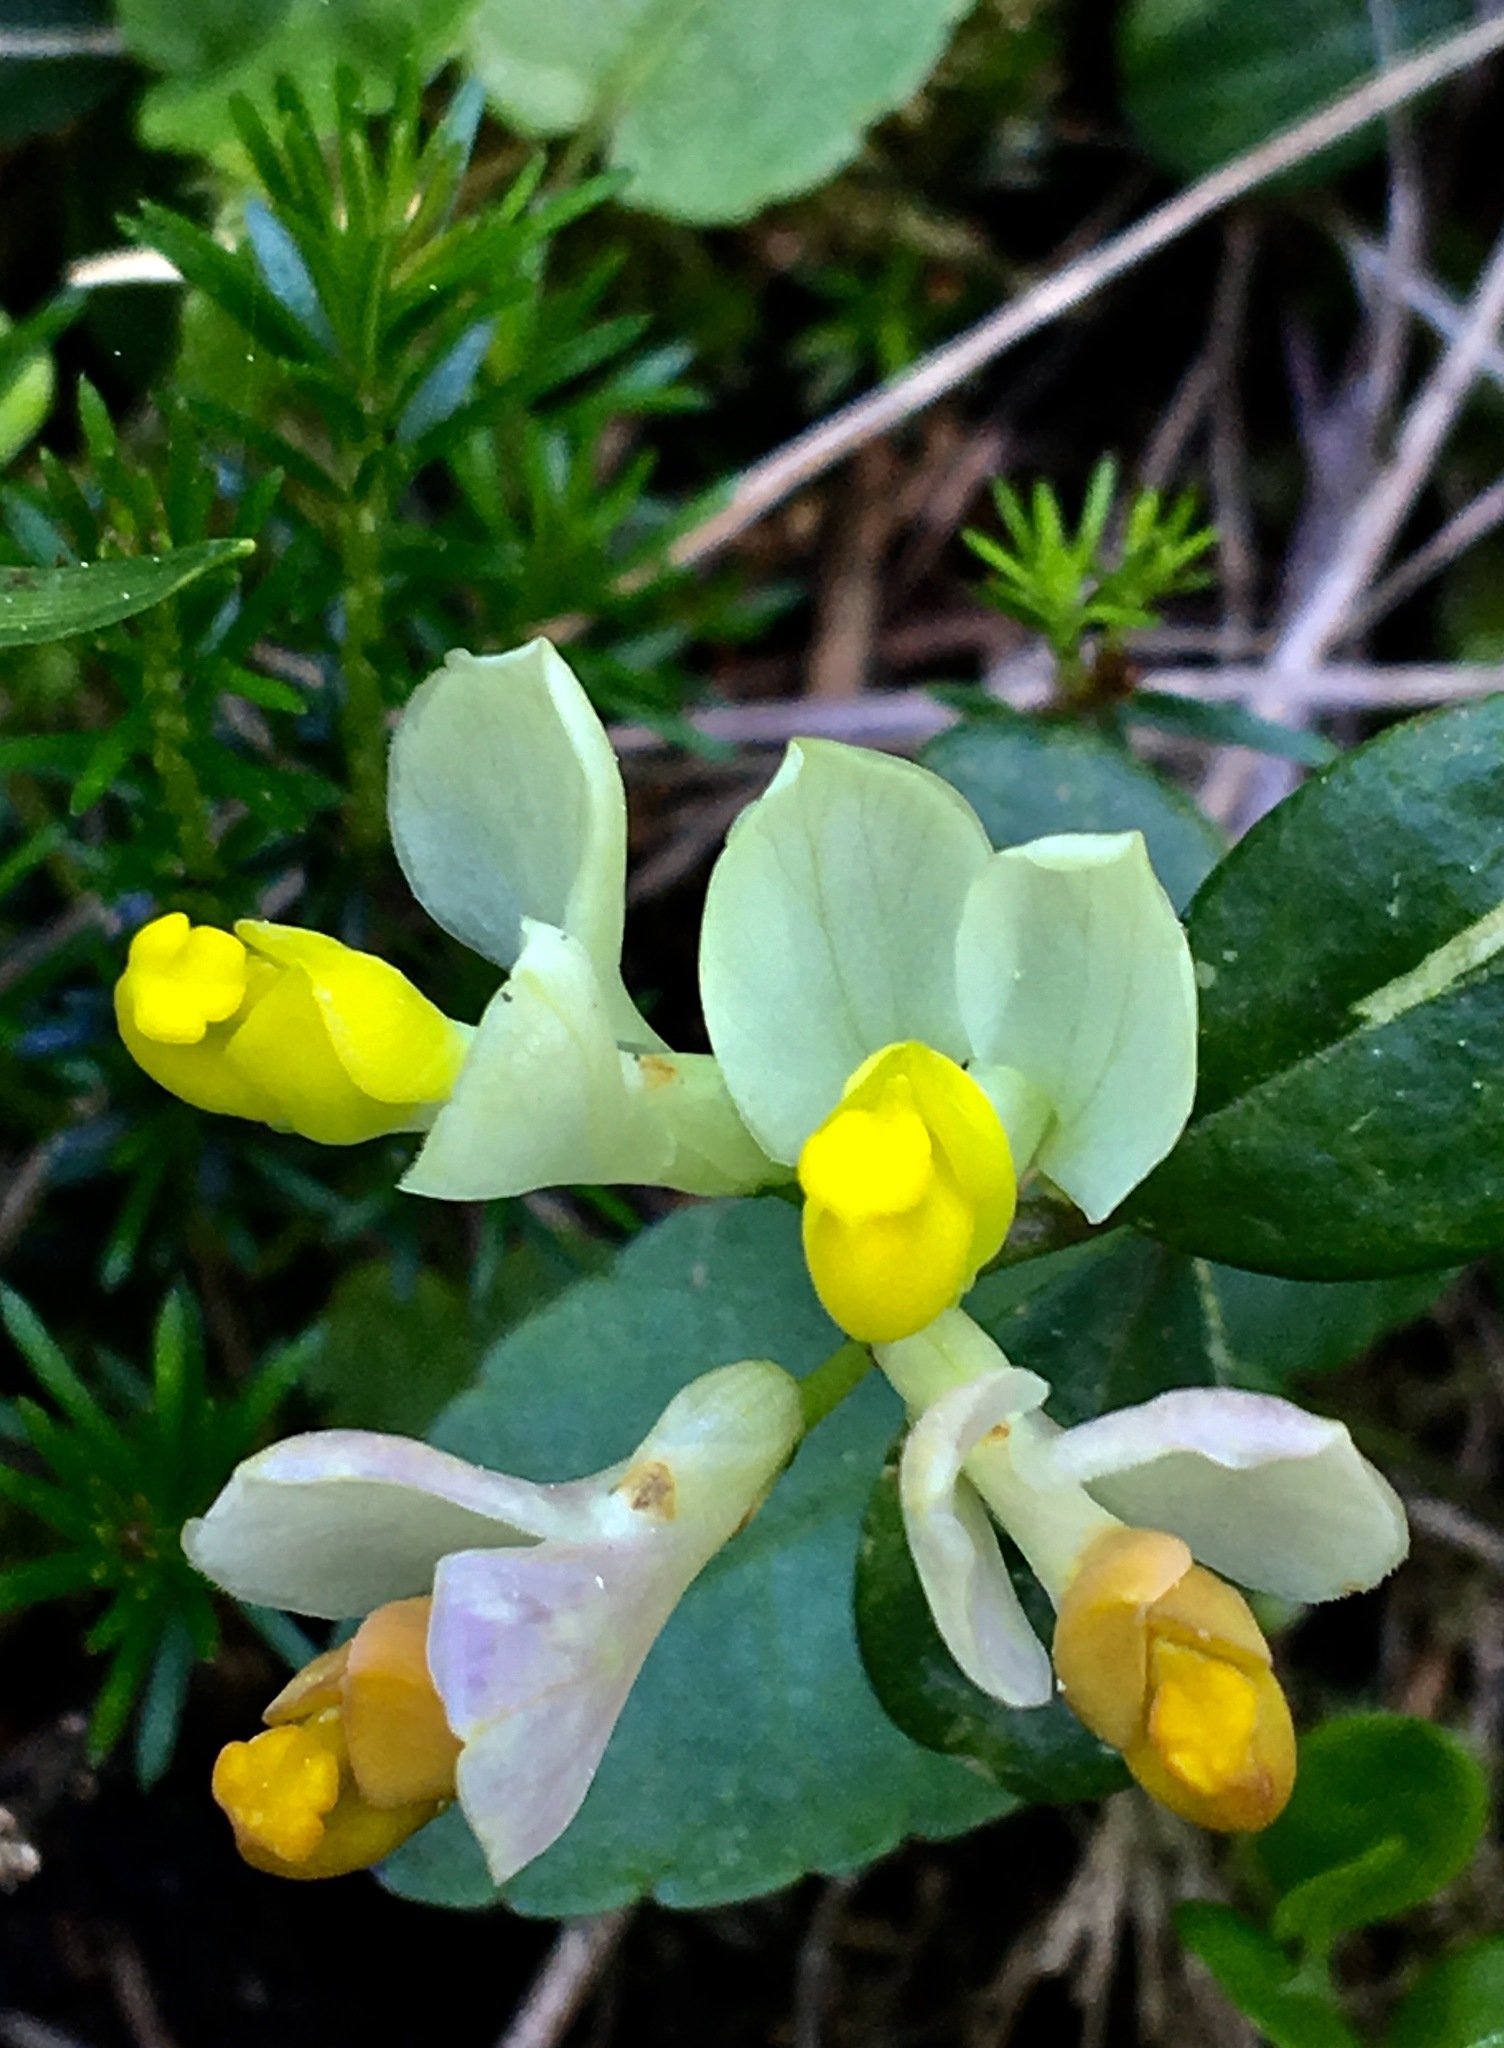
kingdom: Plantae
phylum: Tracheophyta
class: Magnoliopsida
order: Fabales
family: Polygalaceae
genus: Polygaloides
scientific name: Polygaloides chamaebuxus
